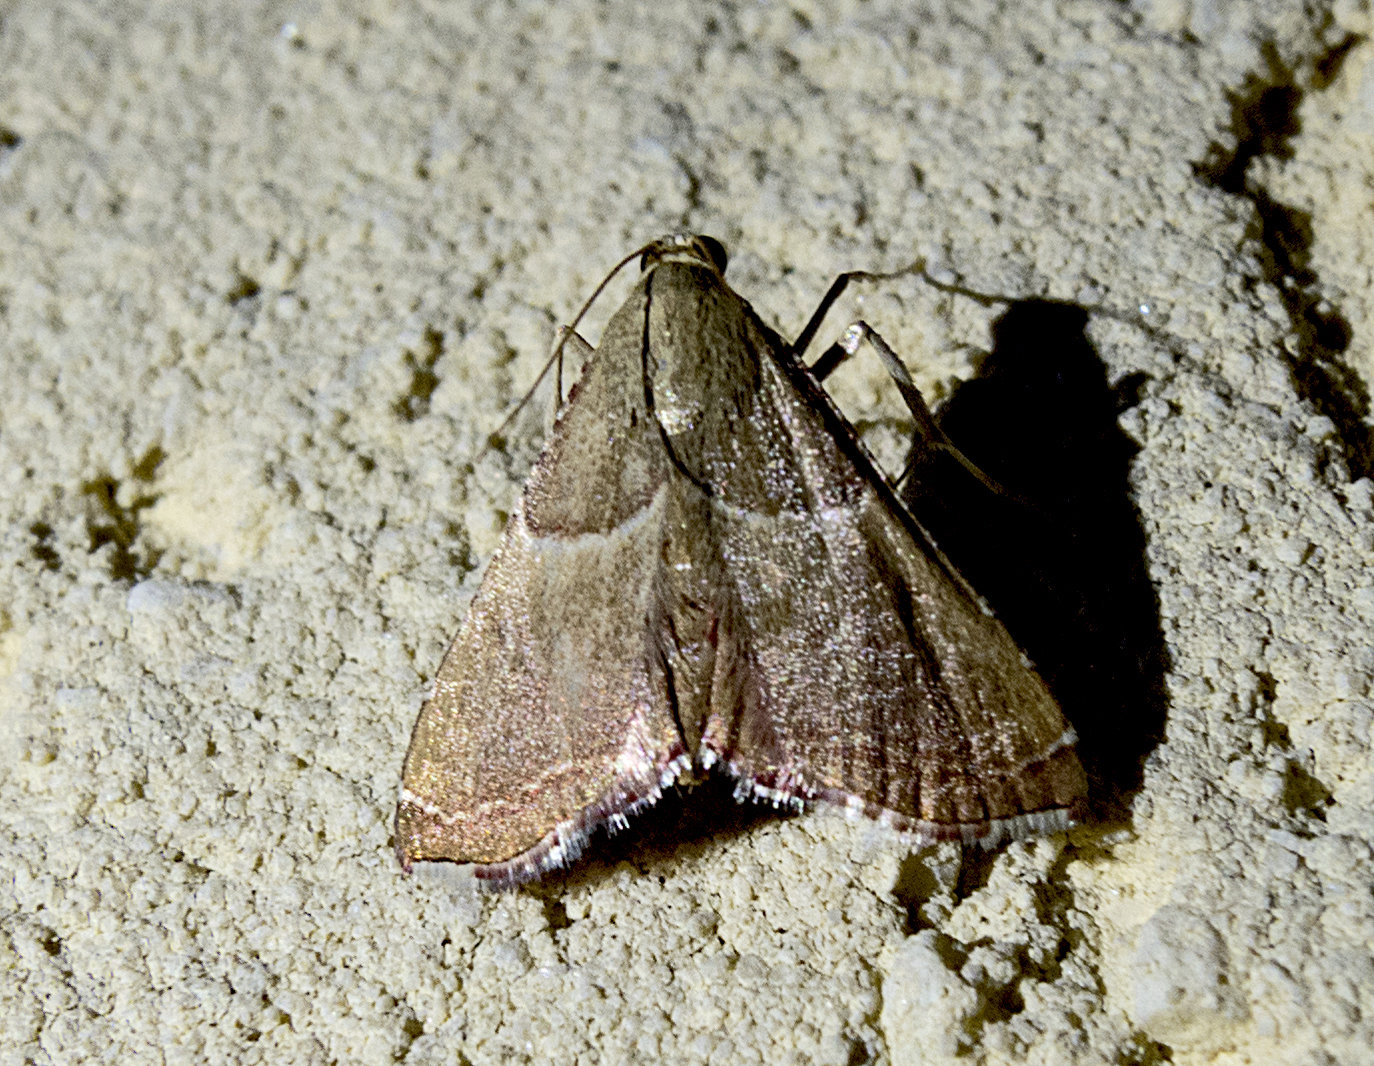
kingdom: Animalia
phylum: Arthropoda
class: Insecta
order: Lepidoptera
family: Pyralidae
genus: Endotricha
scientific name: Endotricha flammealis
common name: Rosy tabby
